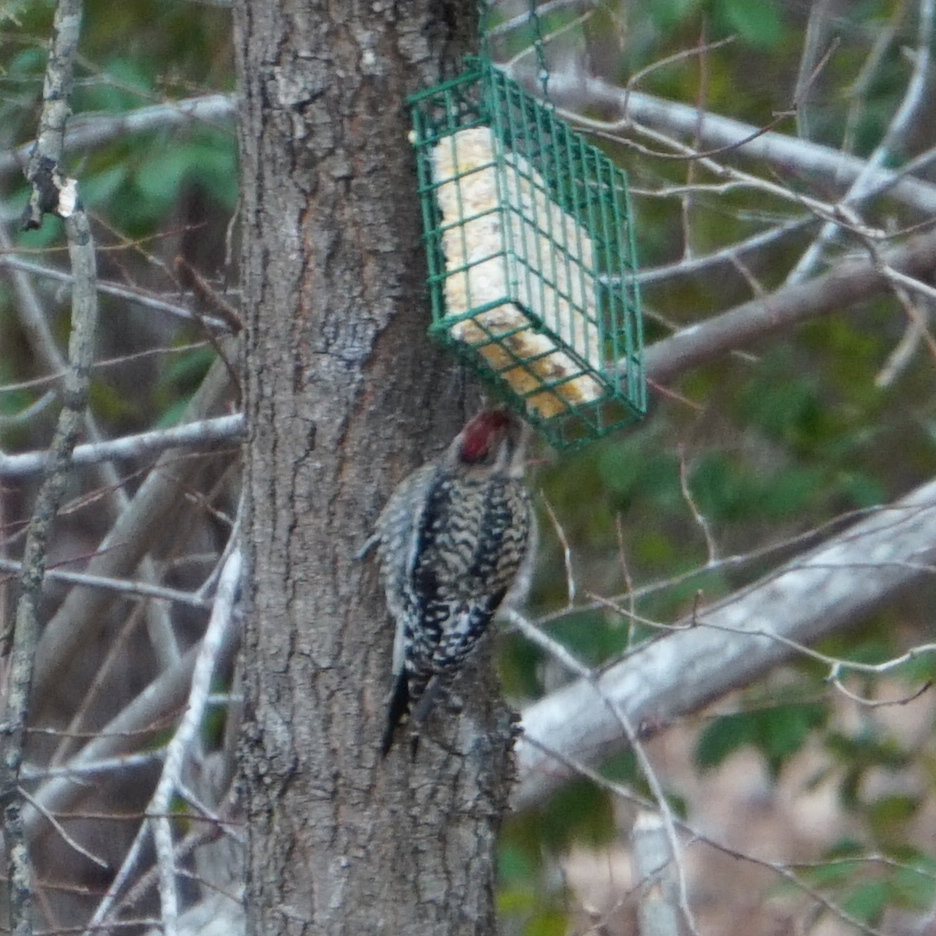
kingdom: Animalia
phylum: Chordata
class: Aves
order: Piciformes
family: Picidae
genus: Sphyrapicus
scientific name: Sphyrapicus varius
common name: Yellow-bellied sapsucker
